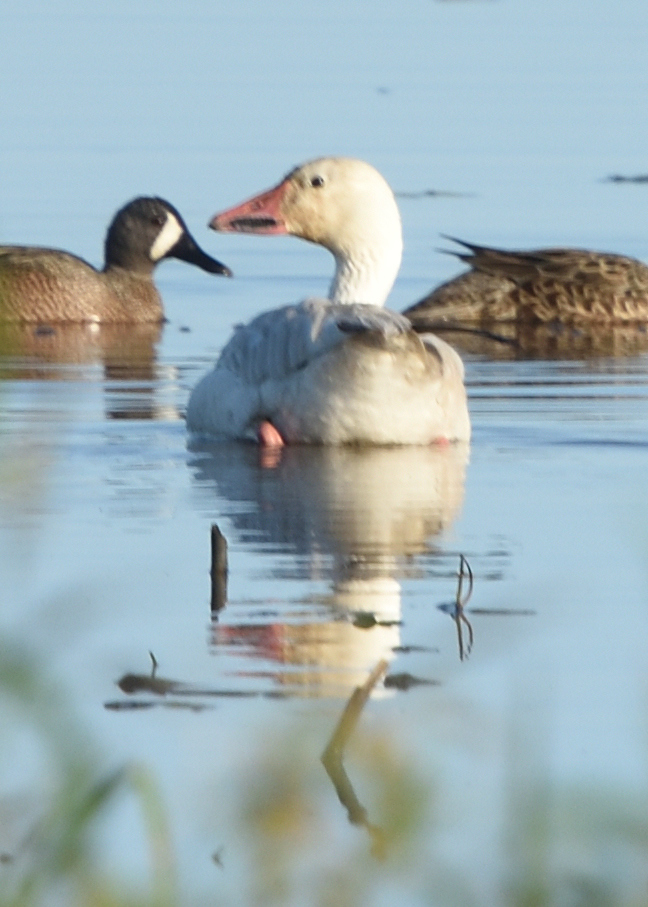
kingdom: Animalia
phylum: Chordata
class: Aves
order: Anseriformes
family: Anatidae
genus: Anser
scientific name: Anser caerulescens
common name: Snow goose
